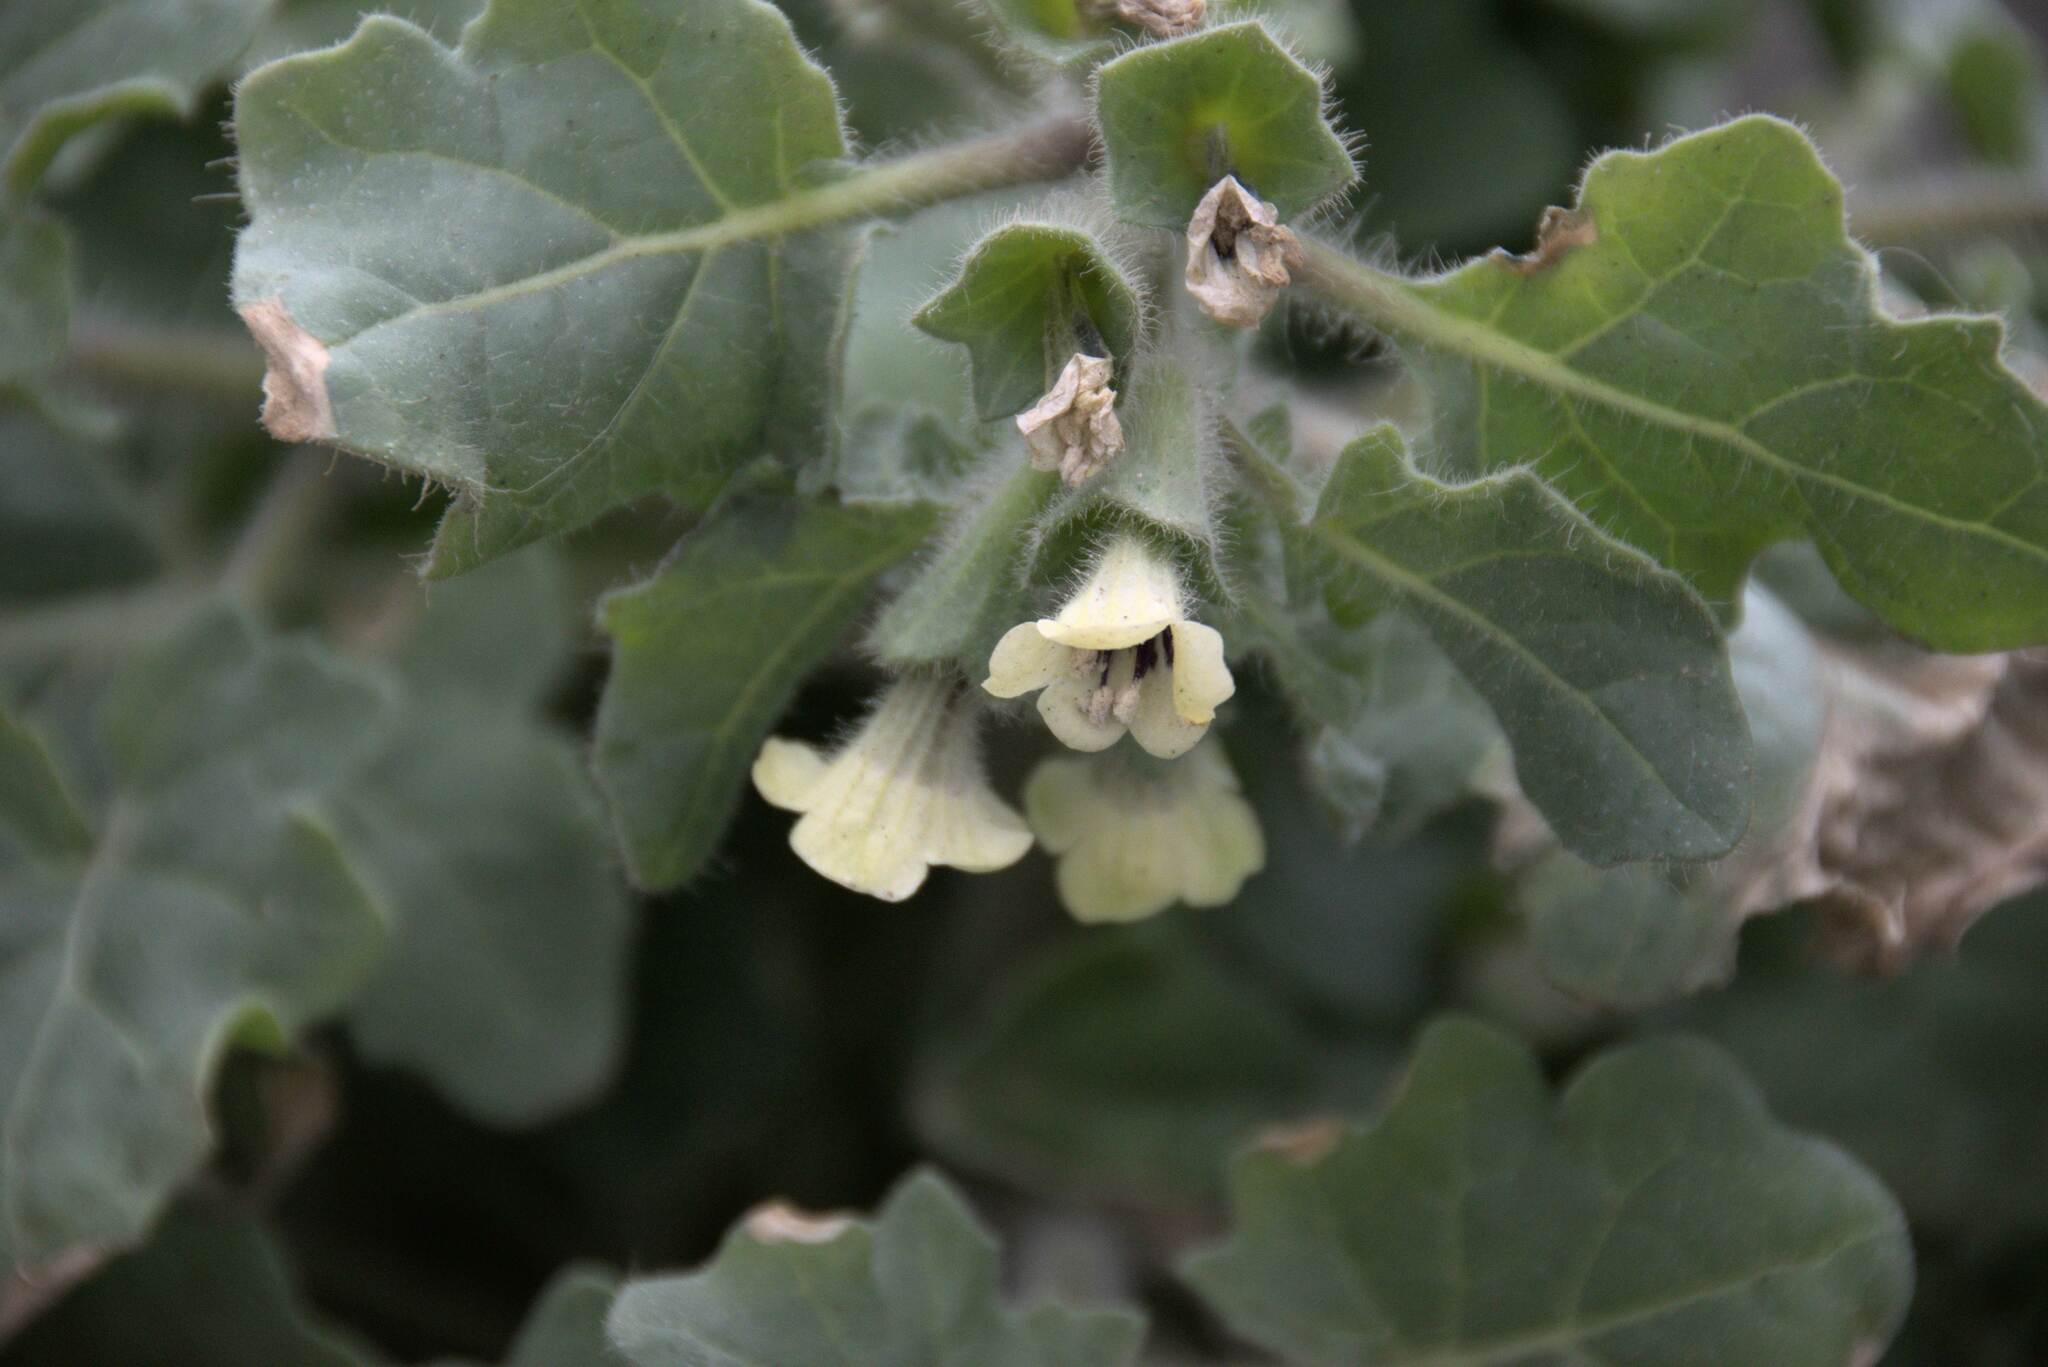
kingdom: Plantae
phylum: Tracheophyta
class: Magnoliopsida
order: Solanales
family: Solanaceae
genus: Hyoscyamus
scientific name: Hyoscyamus albus
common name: White henbane
